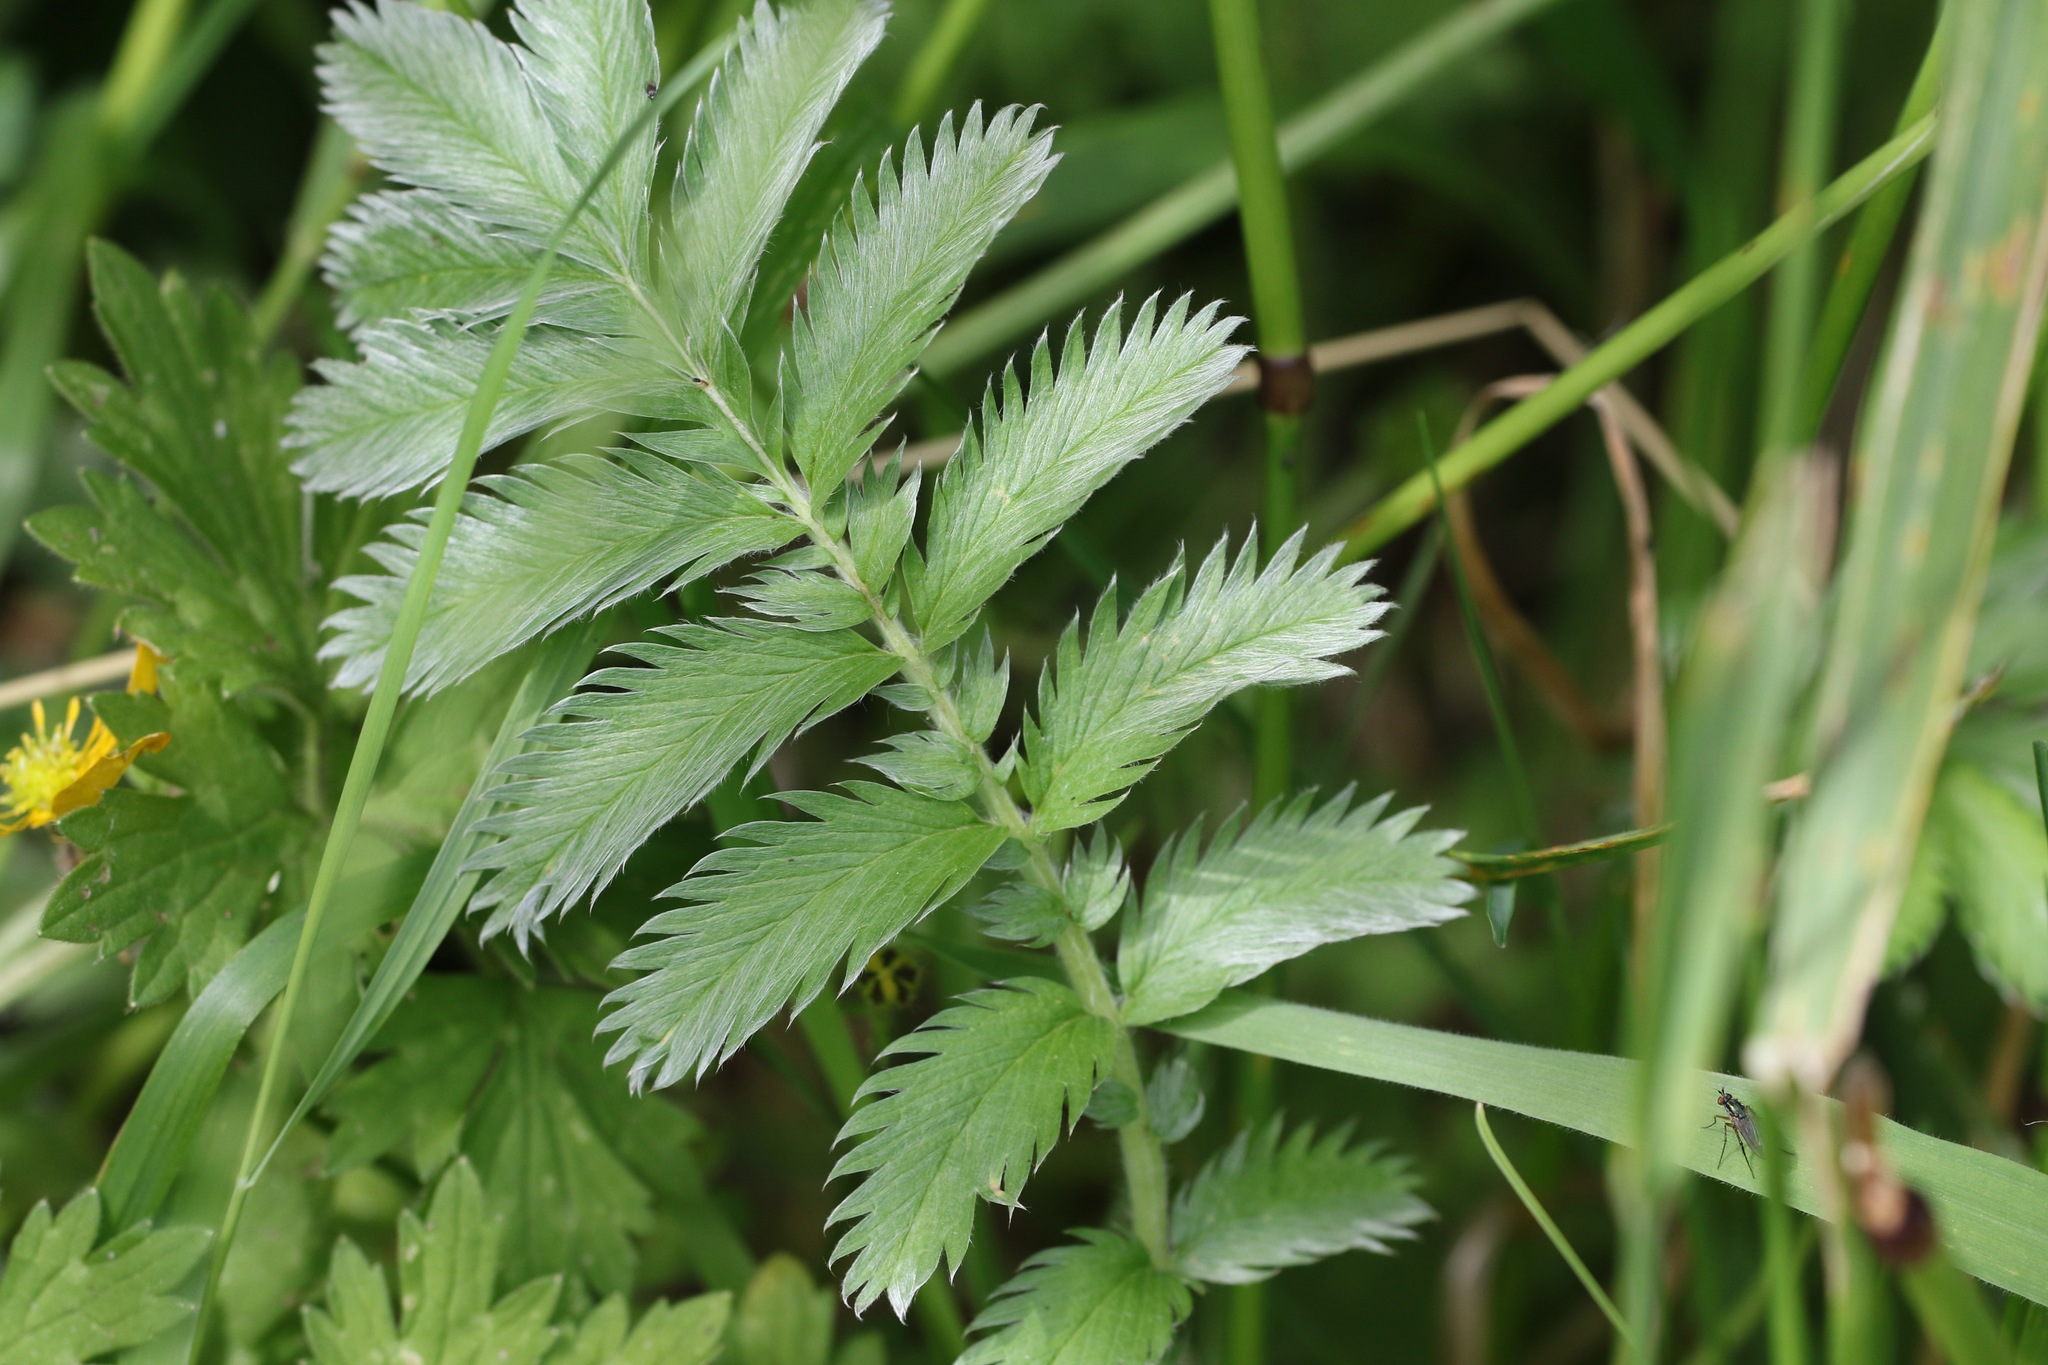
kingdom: Plantae
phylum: Tracheophyta
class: Magnoliopsida
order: Rosales
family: Rosaceae
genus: Argentina
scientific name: Argentina anserina
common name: Common silverweed
